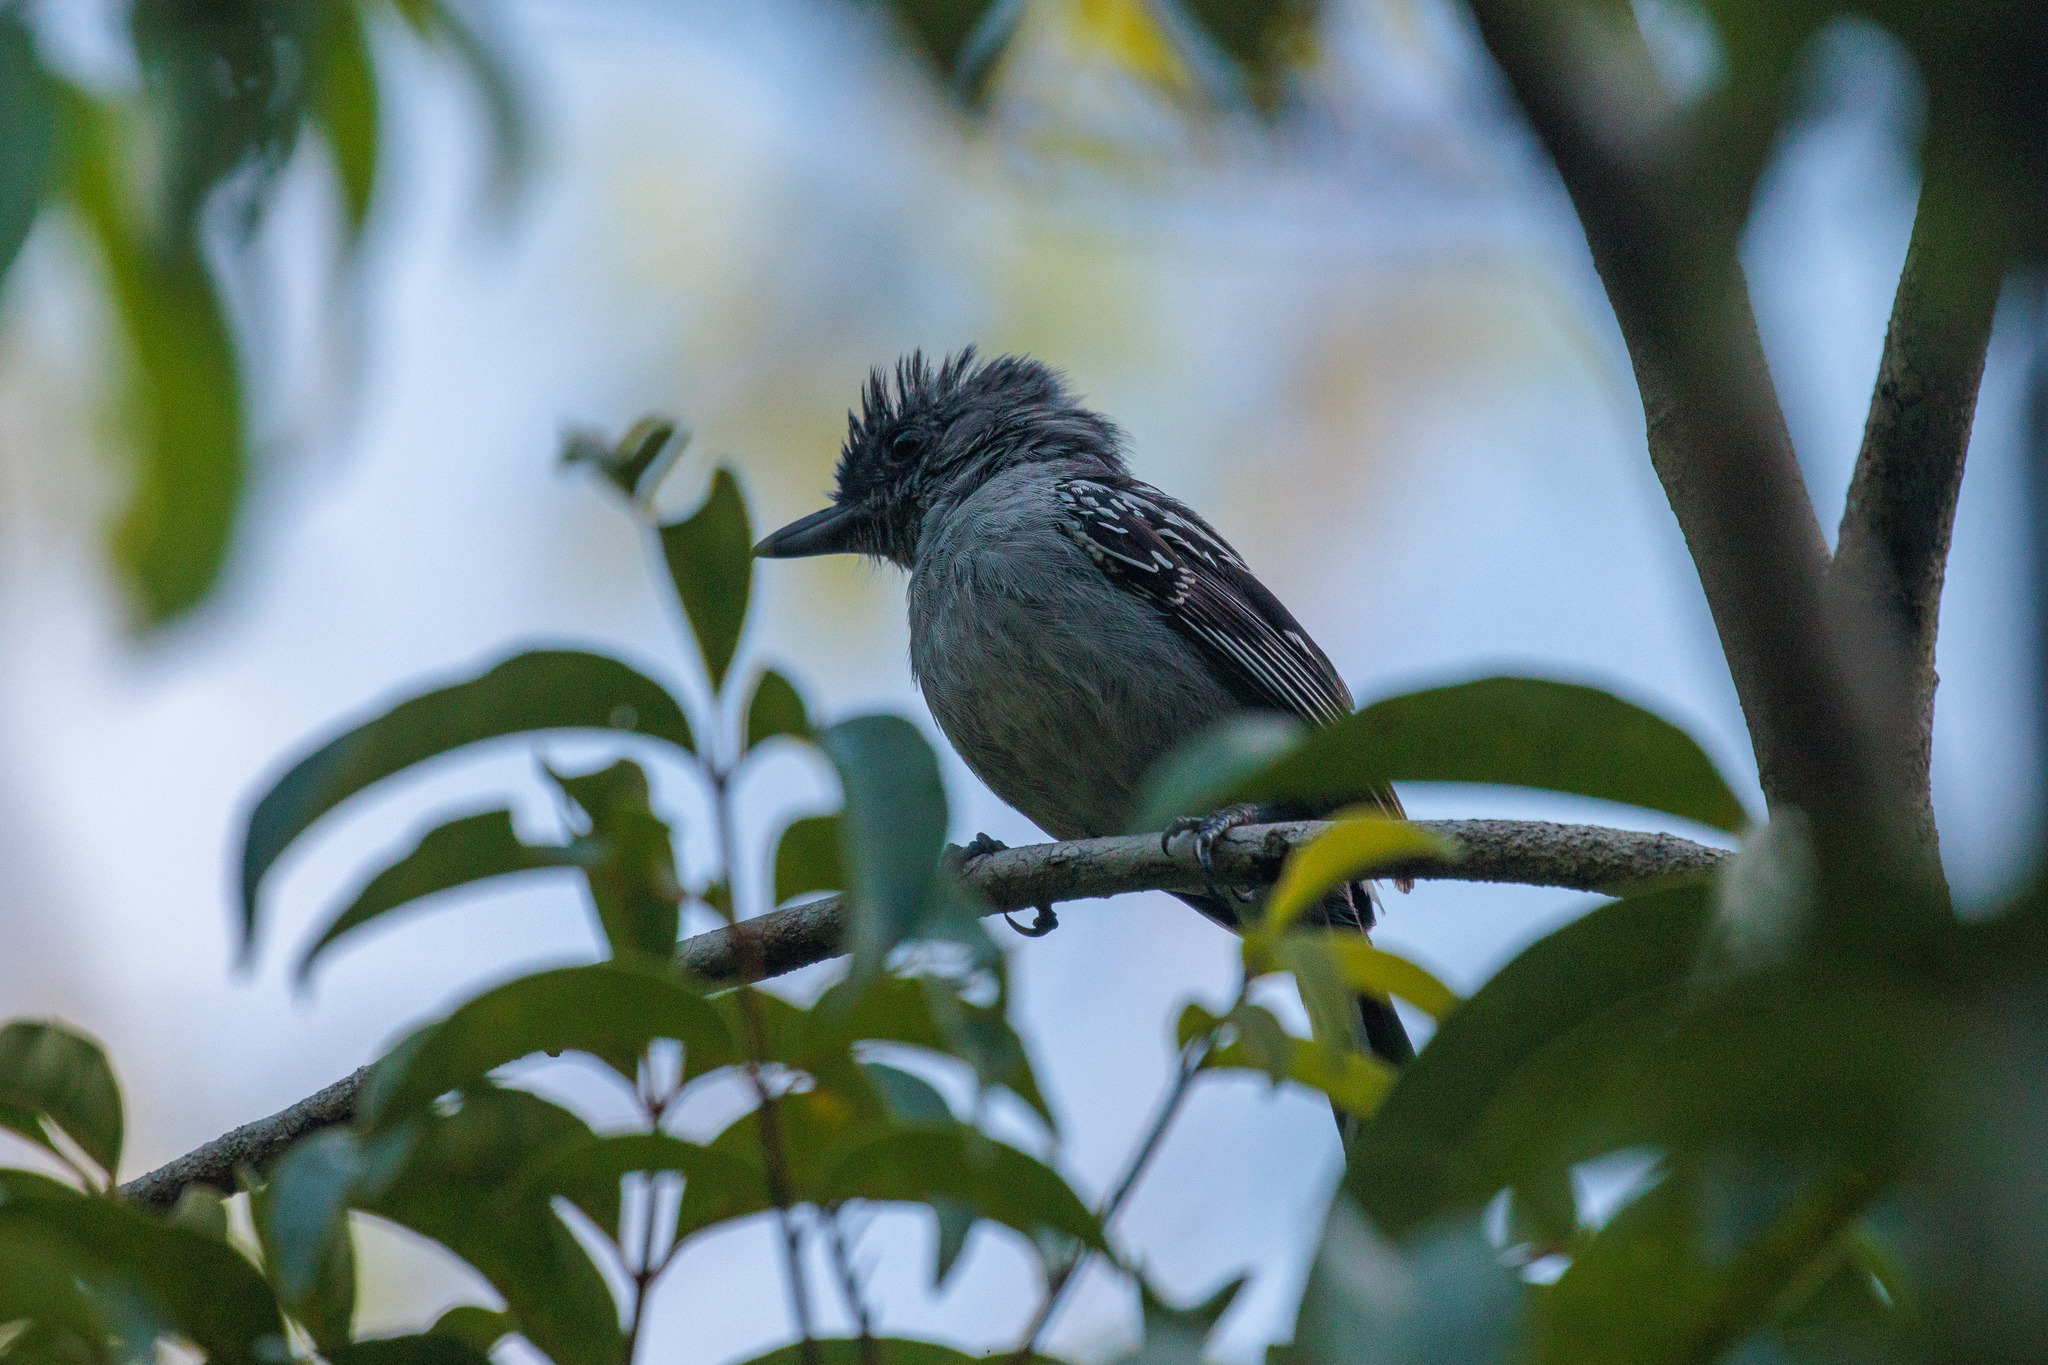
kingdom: Animalia
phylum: Chordata
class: Aves
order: Passeriformes
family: Thamnophilidae
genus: Thamnophilus
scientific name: Thamnophilus pelzelni
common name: Planalto slaty-antshrike
